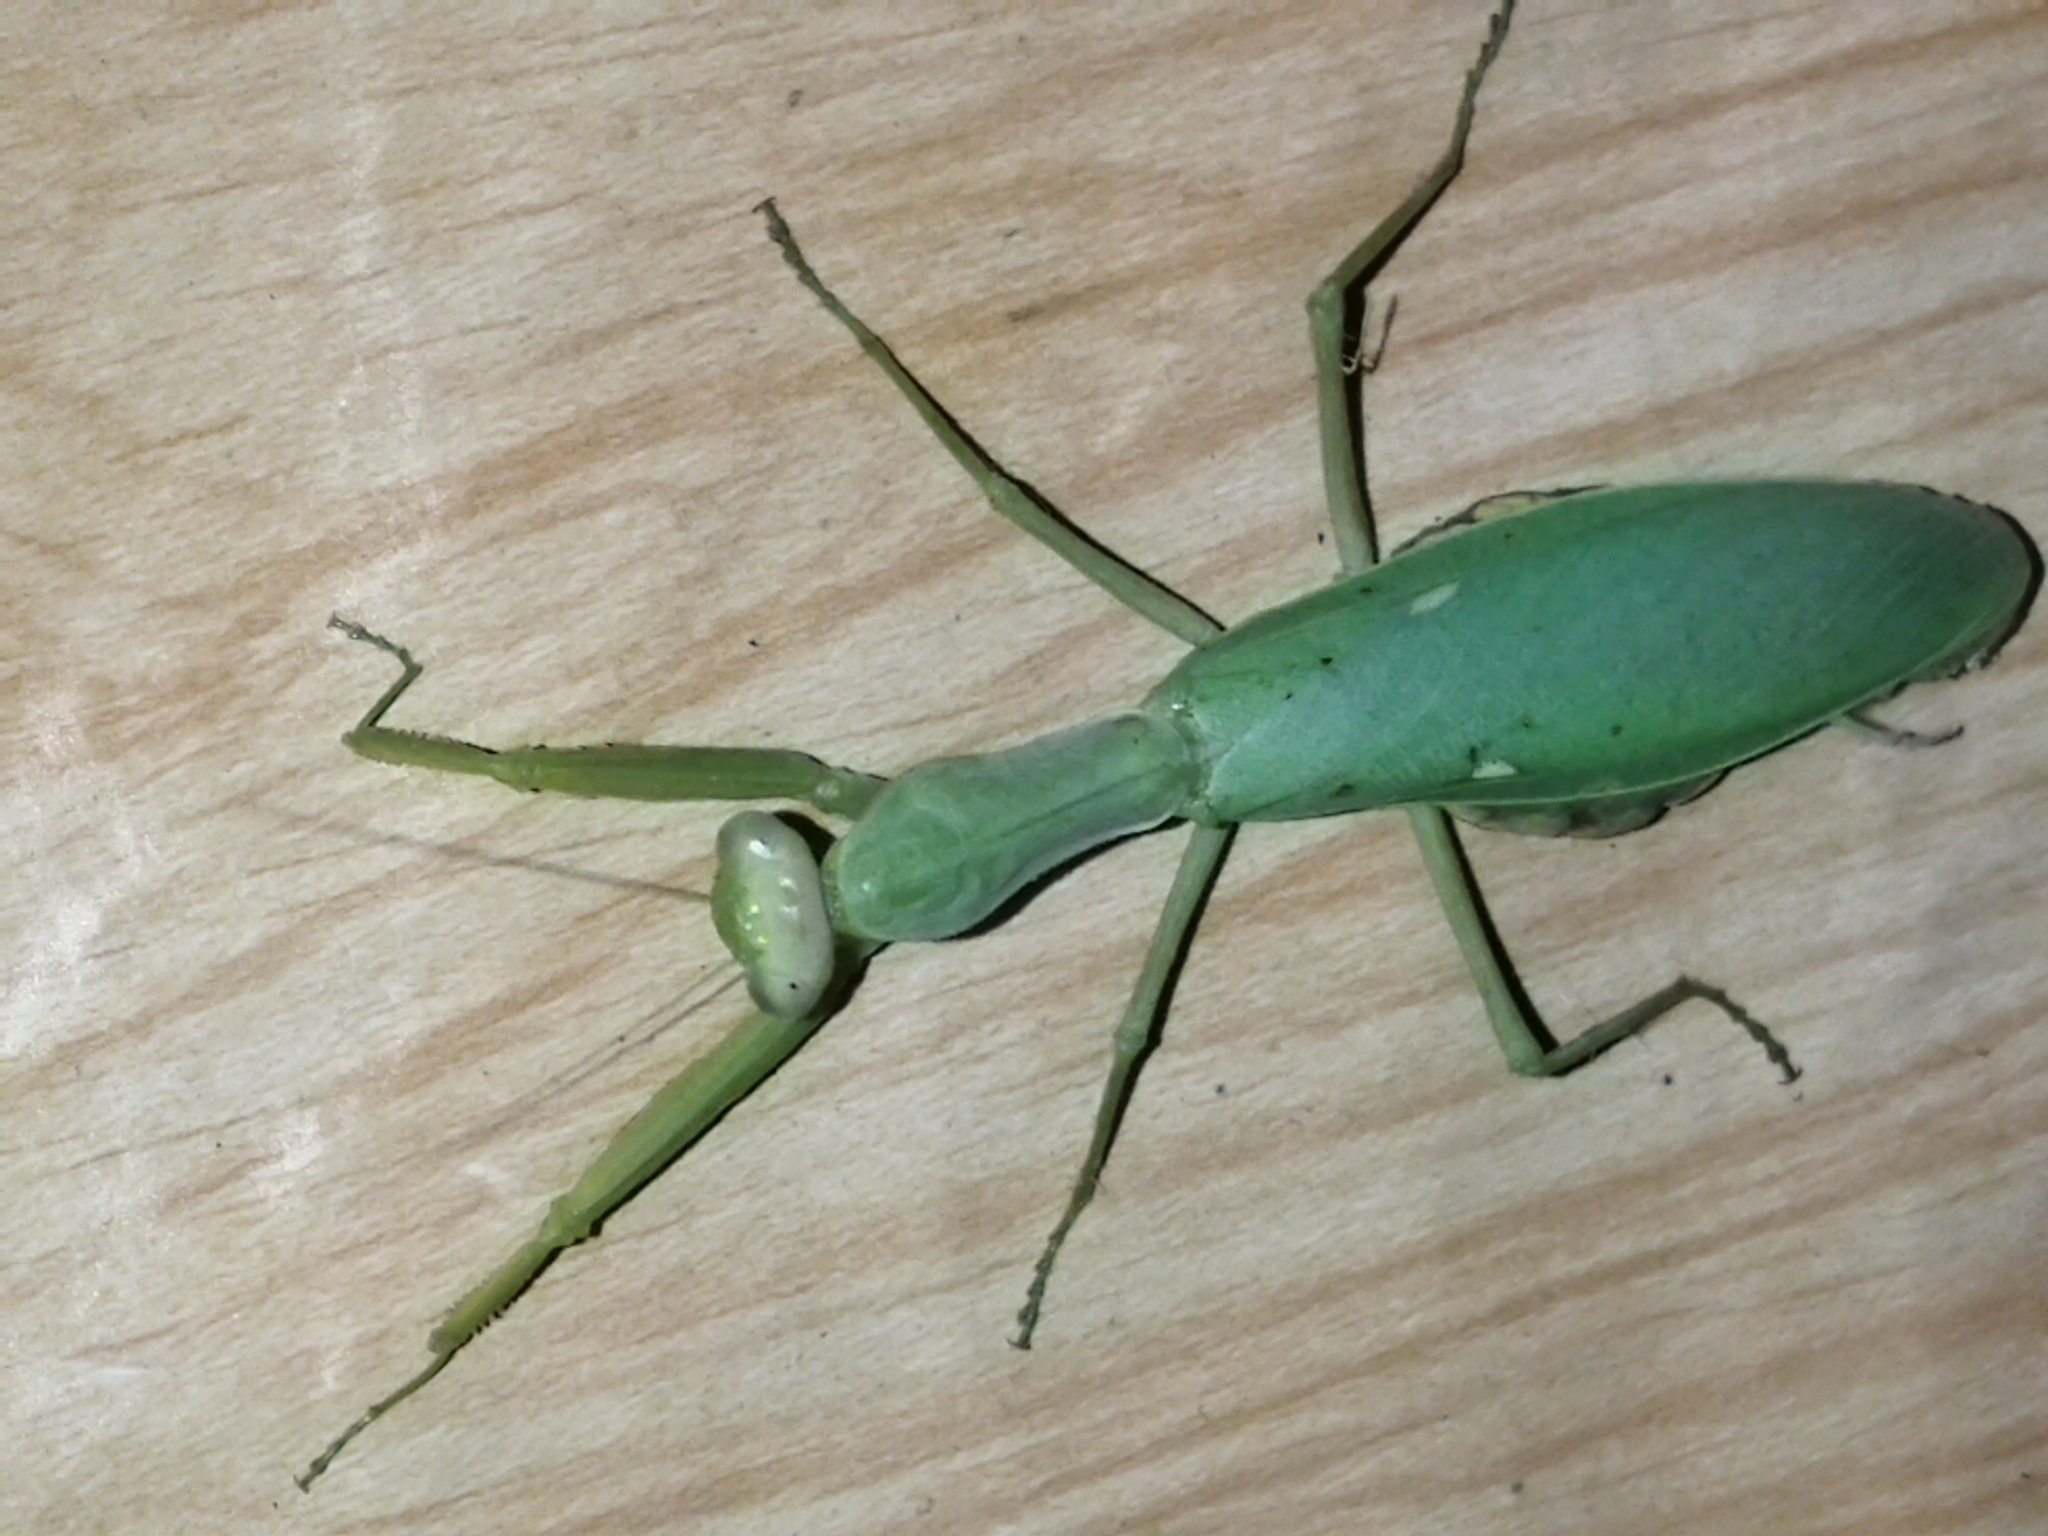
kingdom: Animalia
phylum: Arthropoda
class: Insecta
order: Mantodea
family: Mantidae
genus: Hierodula
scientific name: Hierodula transcaucasica
